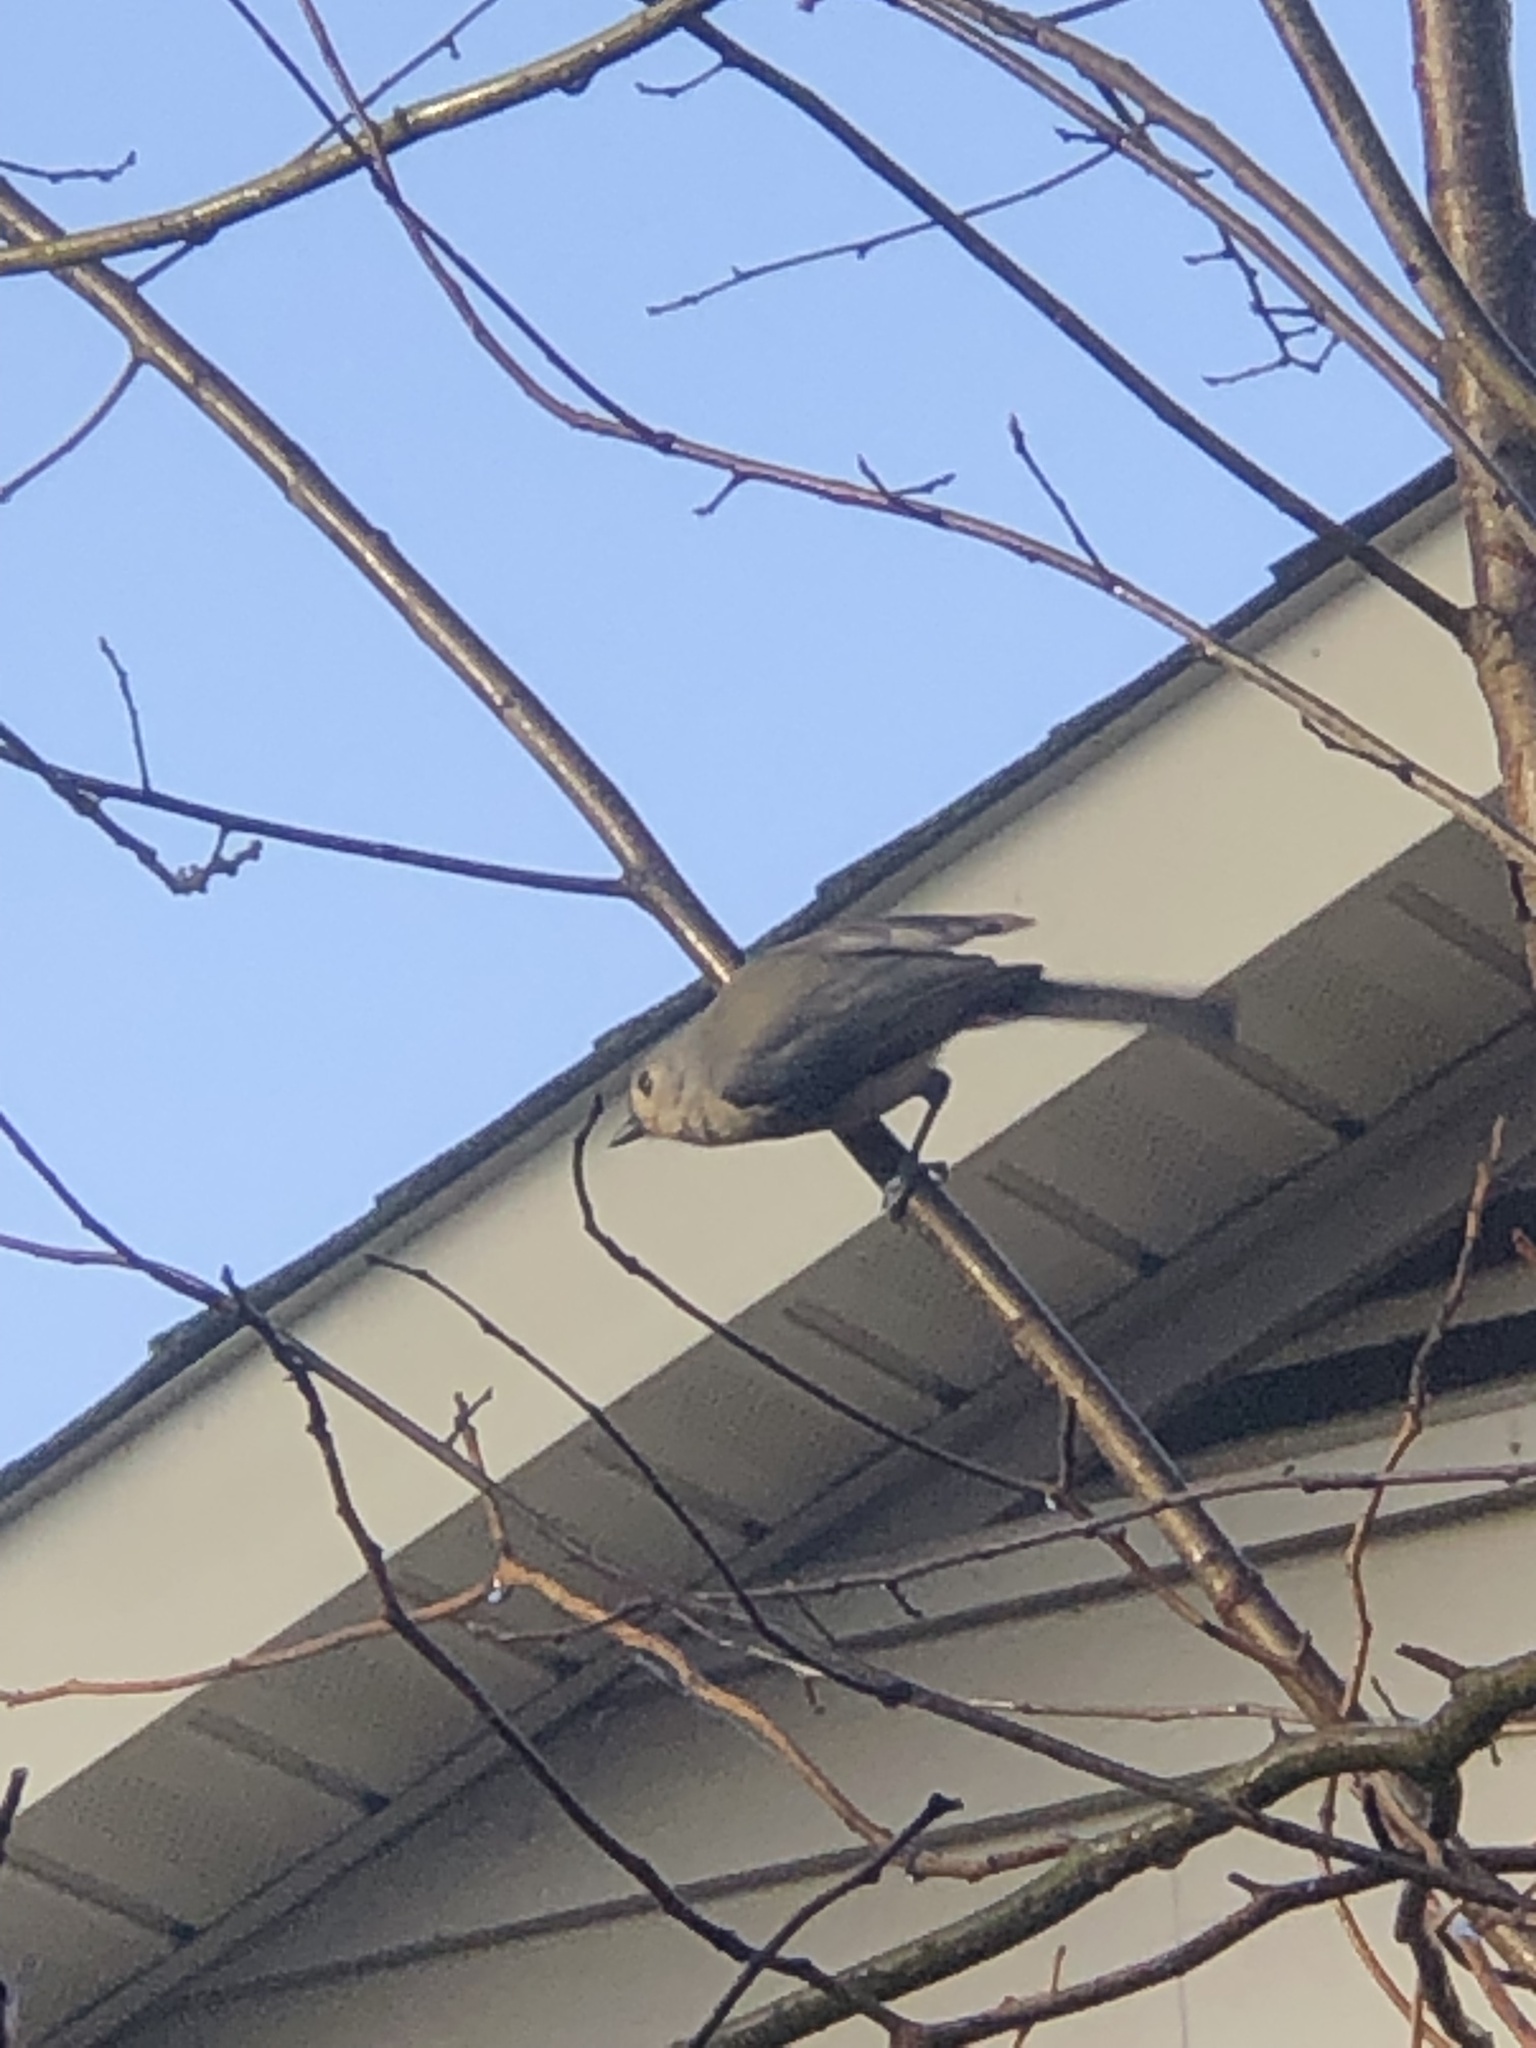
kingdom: Animalia
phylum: Chordata
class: Aves
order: Passeriformes
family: Paridae
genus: Baeolophus
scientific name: Baeolophus bicolor
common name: Tufted titmouse
